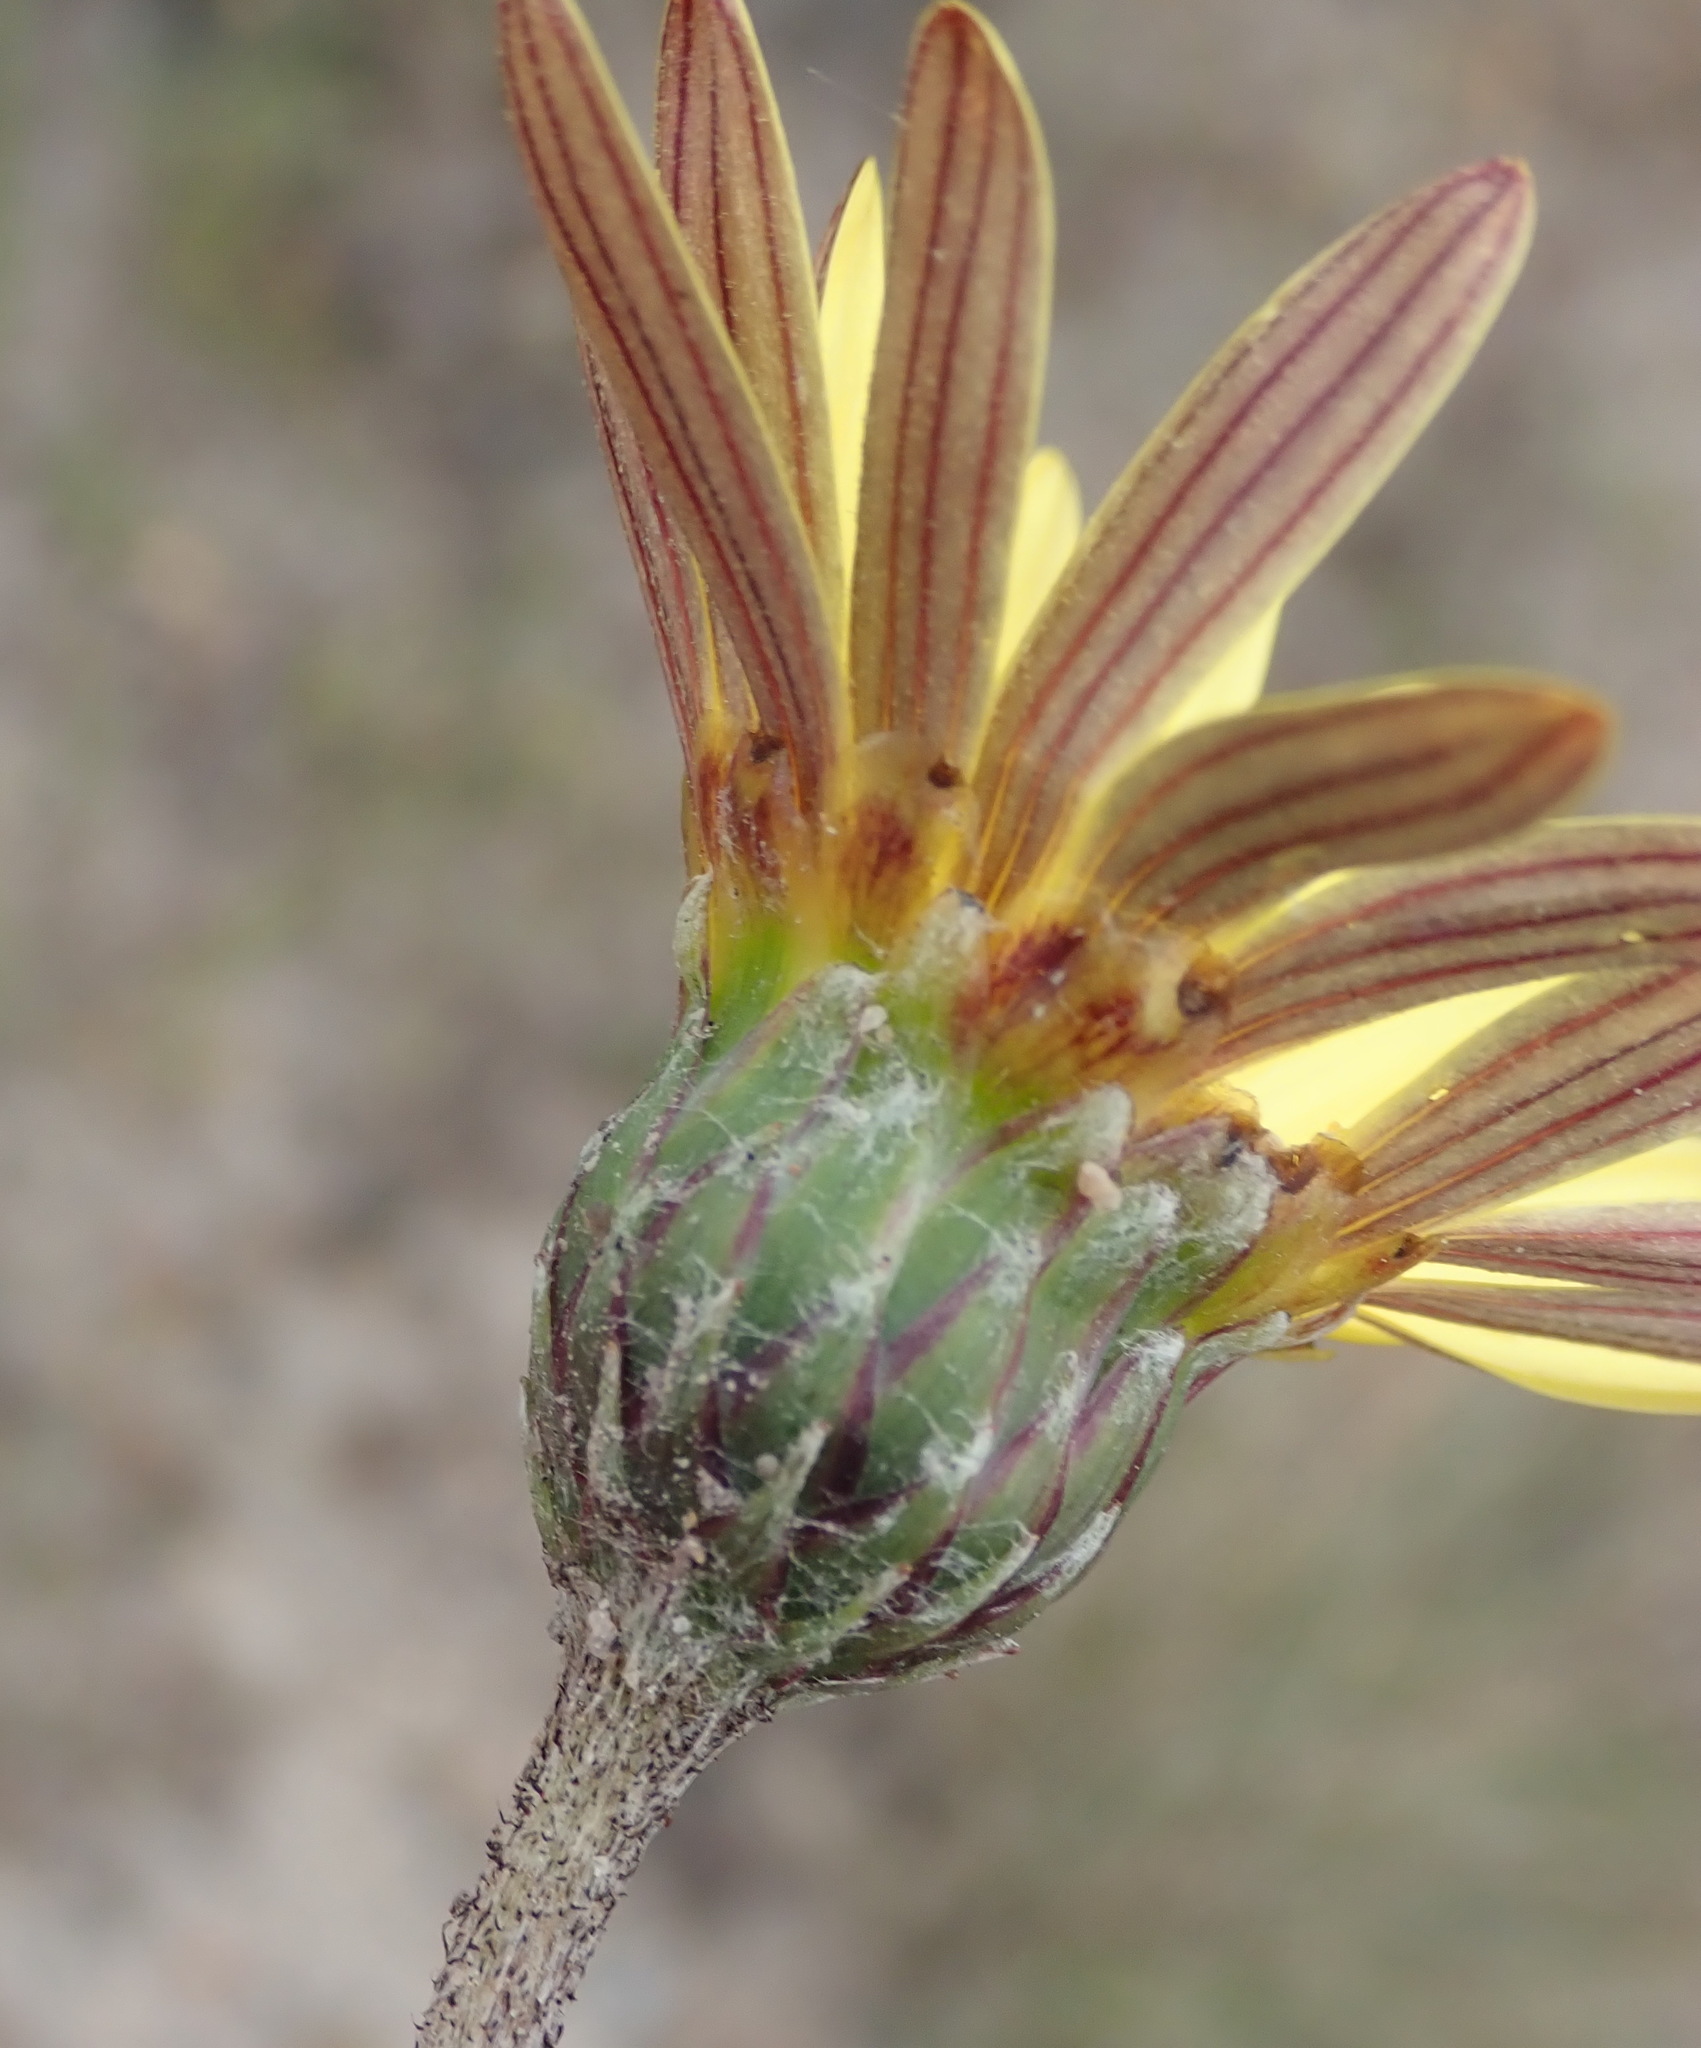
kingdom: Plantae
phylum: Tracheophyta
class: Magnoliopsida
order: Asterales
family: Asteraceae
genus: Haplocarpha
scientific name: Haplocarpha lyrata
